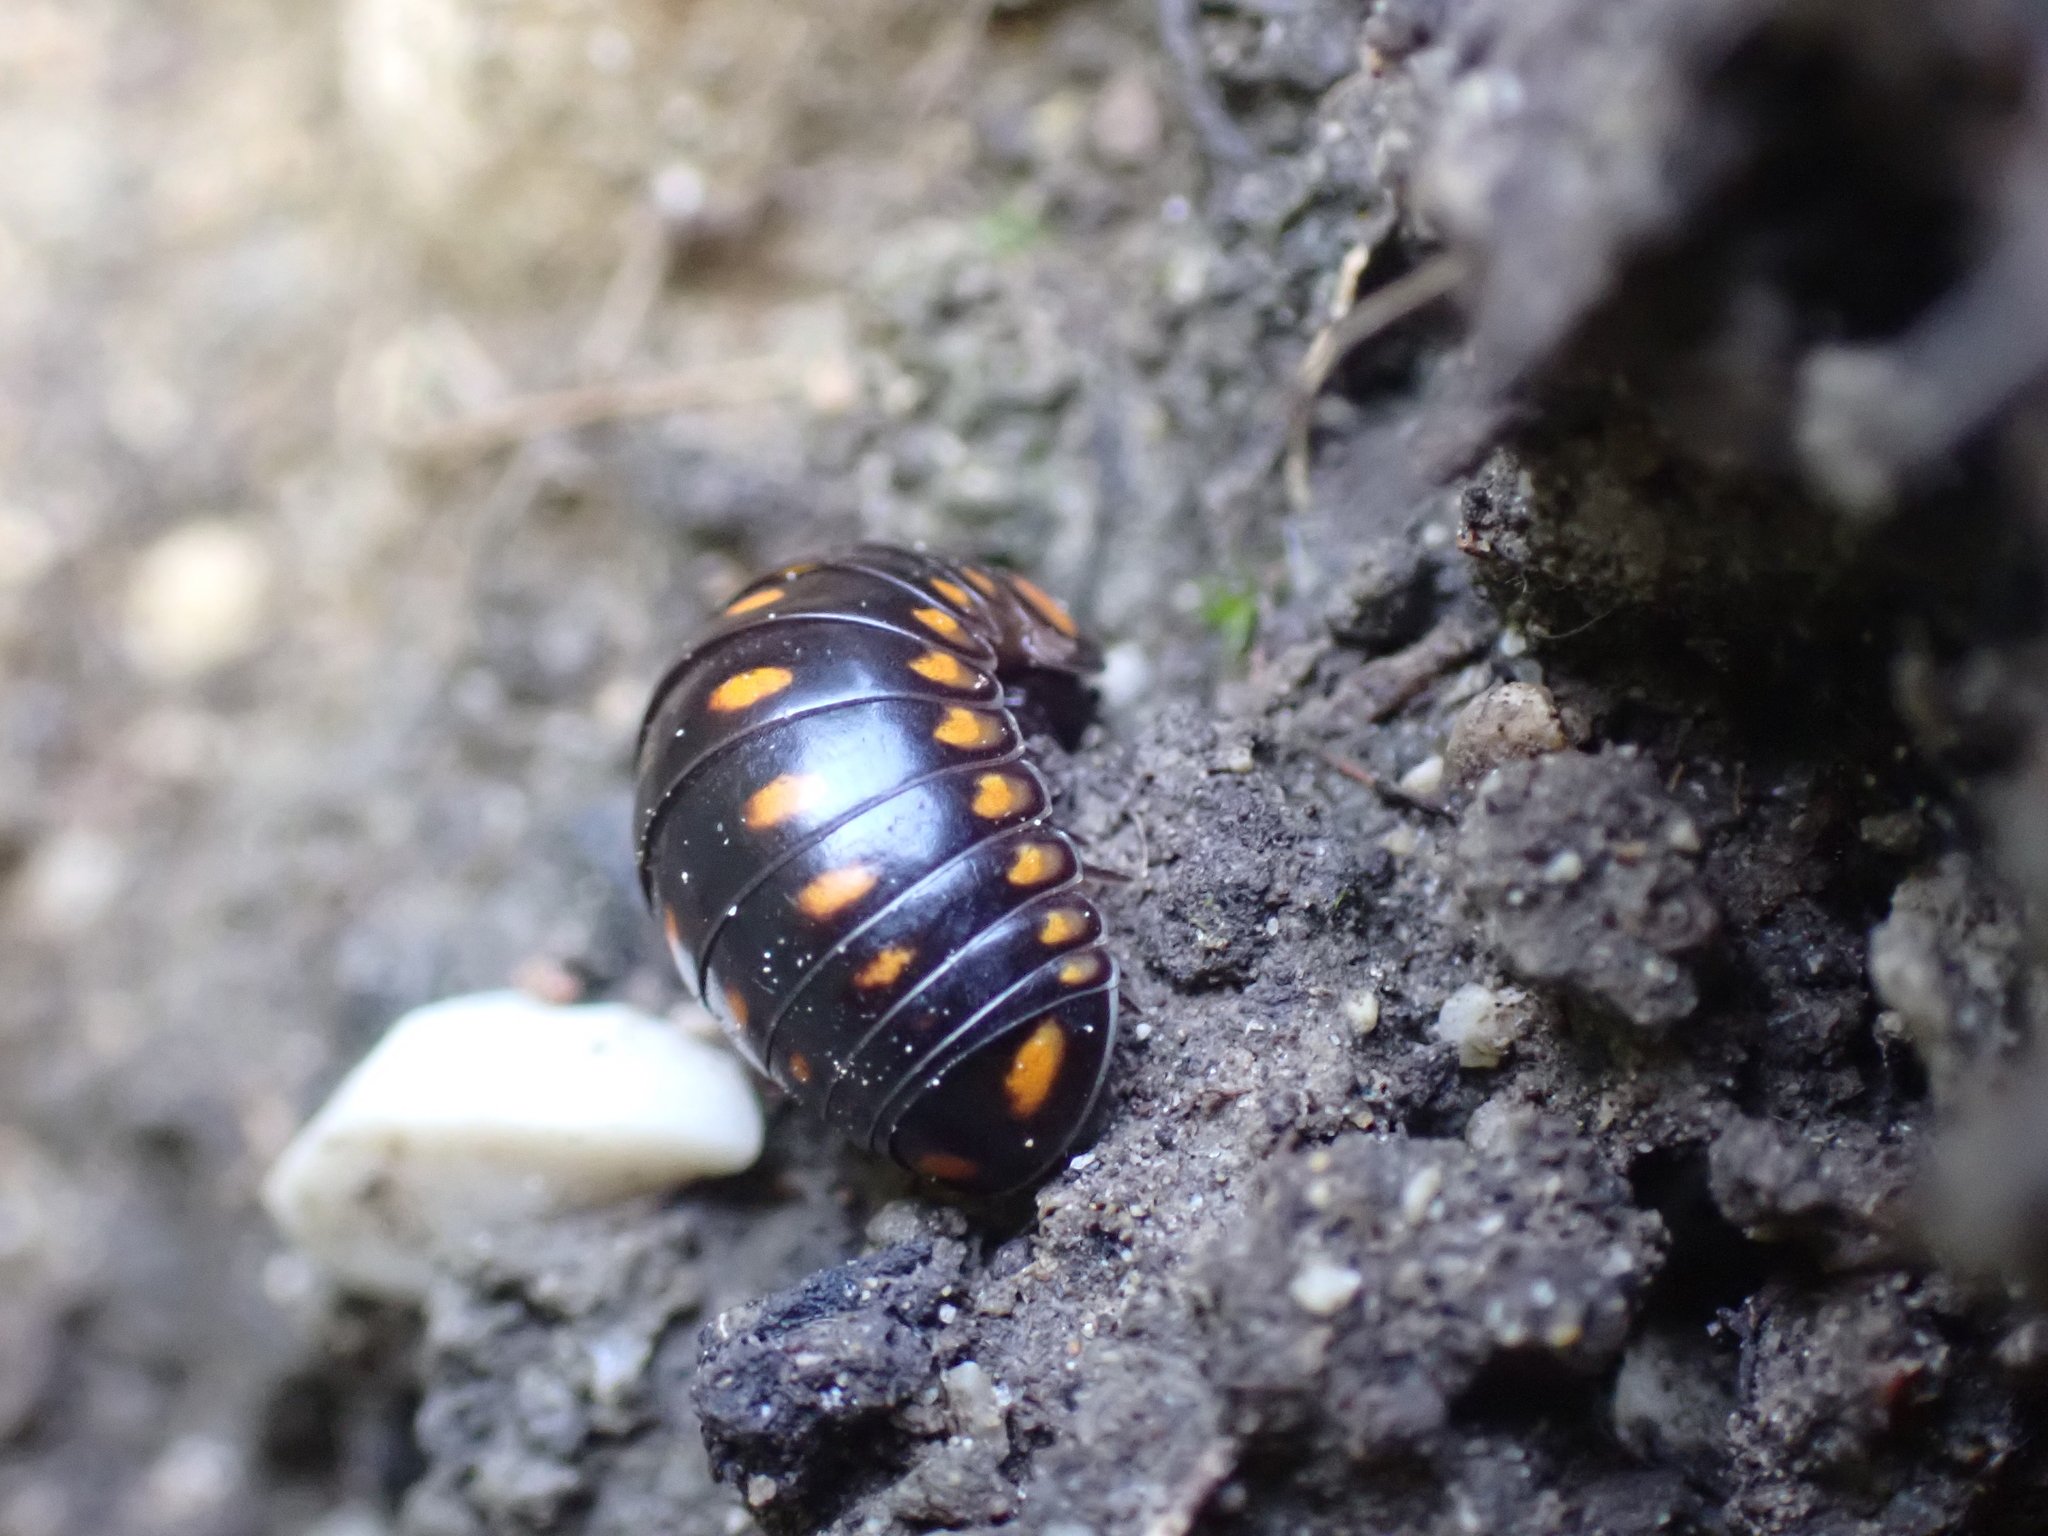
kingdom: Animalia
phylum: Arthropoda
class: Diplopoda
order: Glomerida
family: Glomeridae
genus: Glomeris
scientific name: Glomeris guttata
